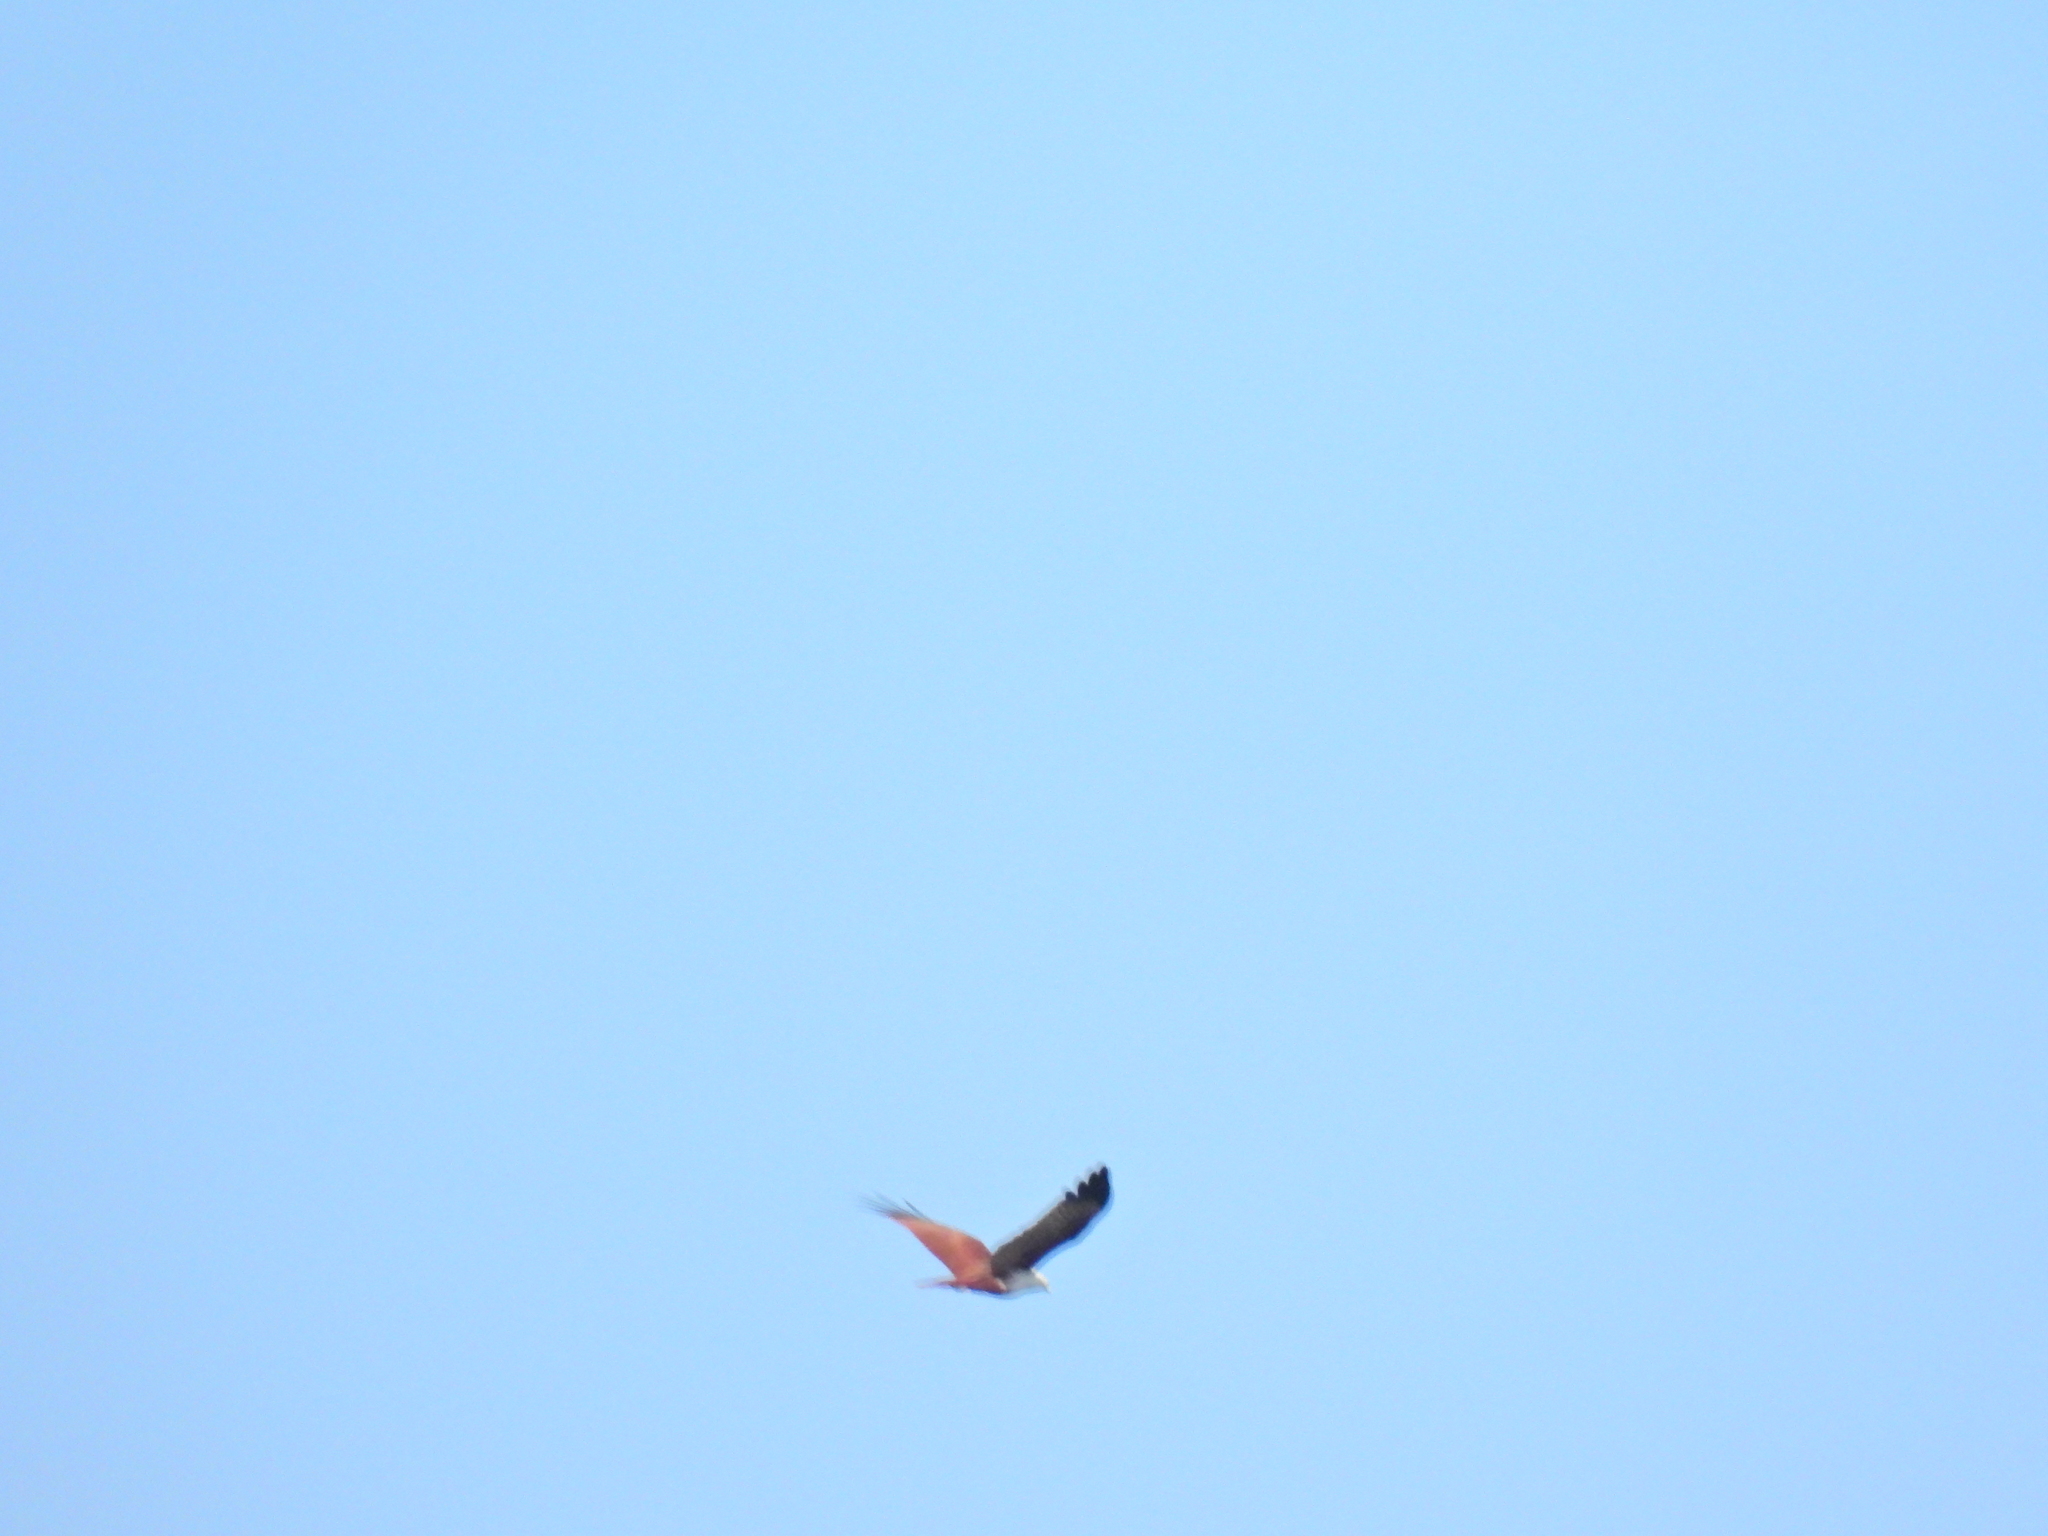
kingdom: Animalia
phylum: Chordata
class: Aves
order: Accipitriformes
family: Accipitridae
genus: Haliastur
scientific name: Haliastur indus
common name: Brahminy kite
